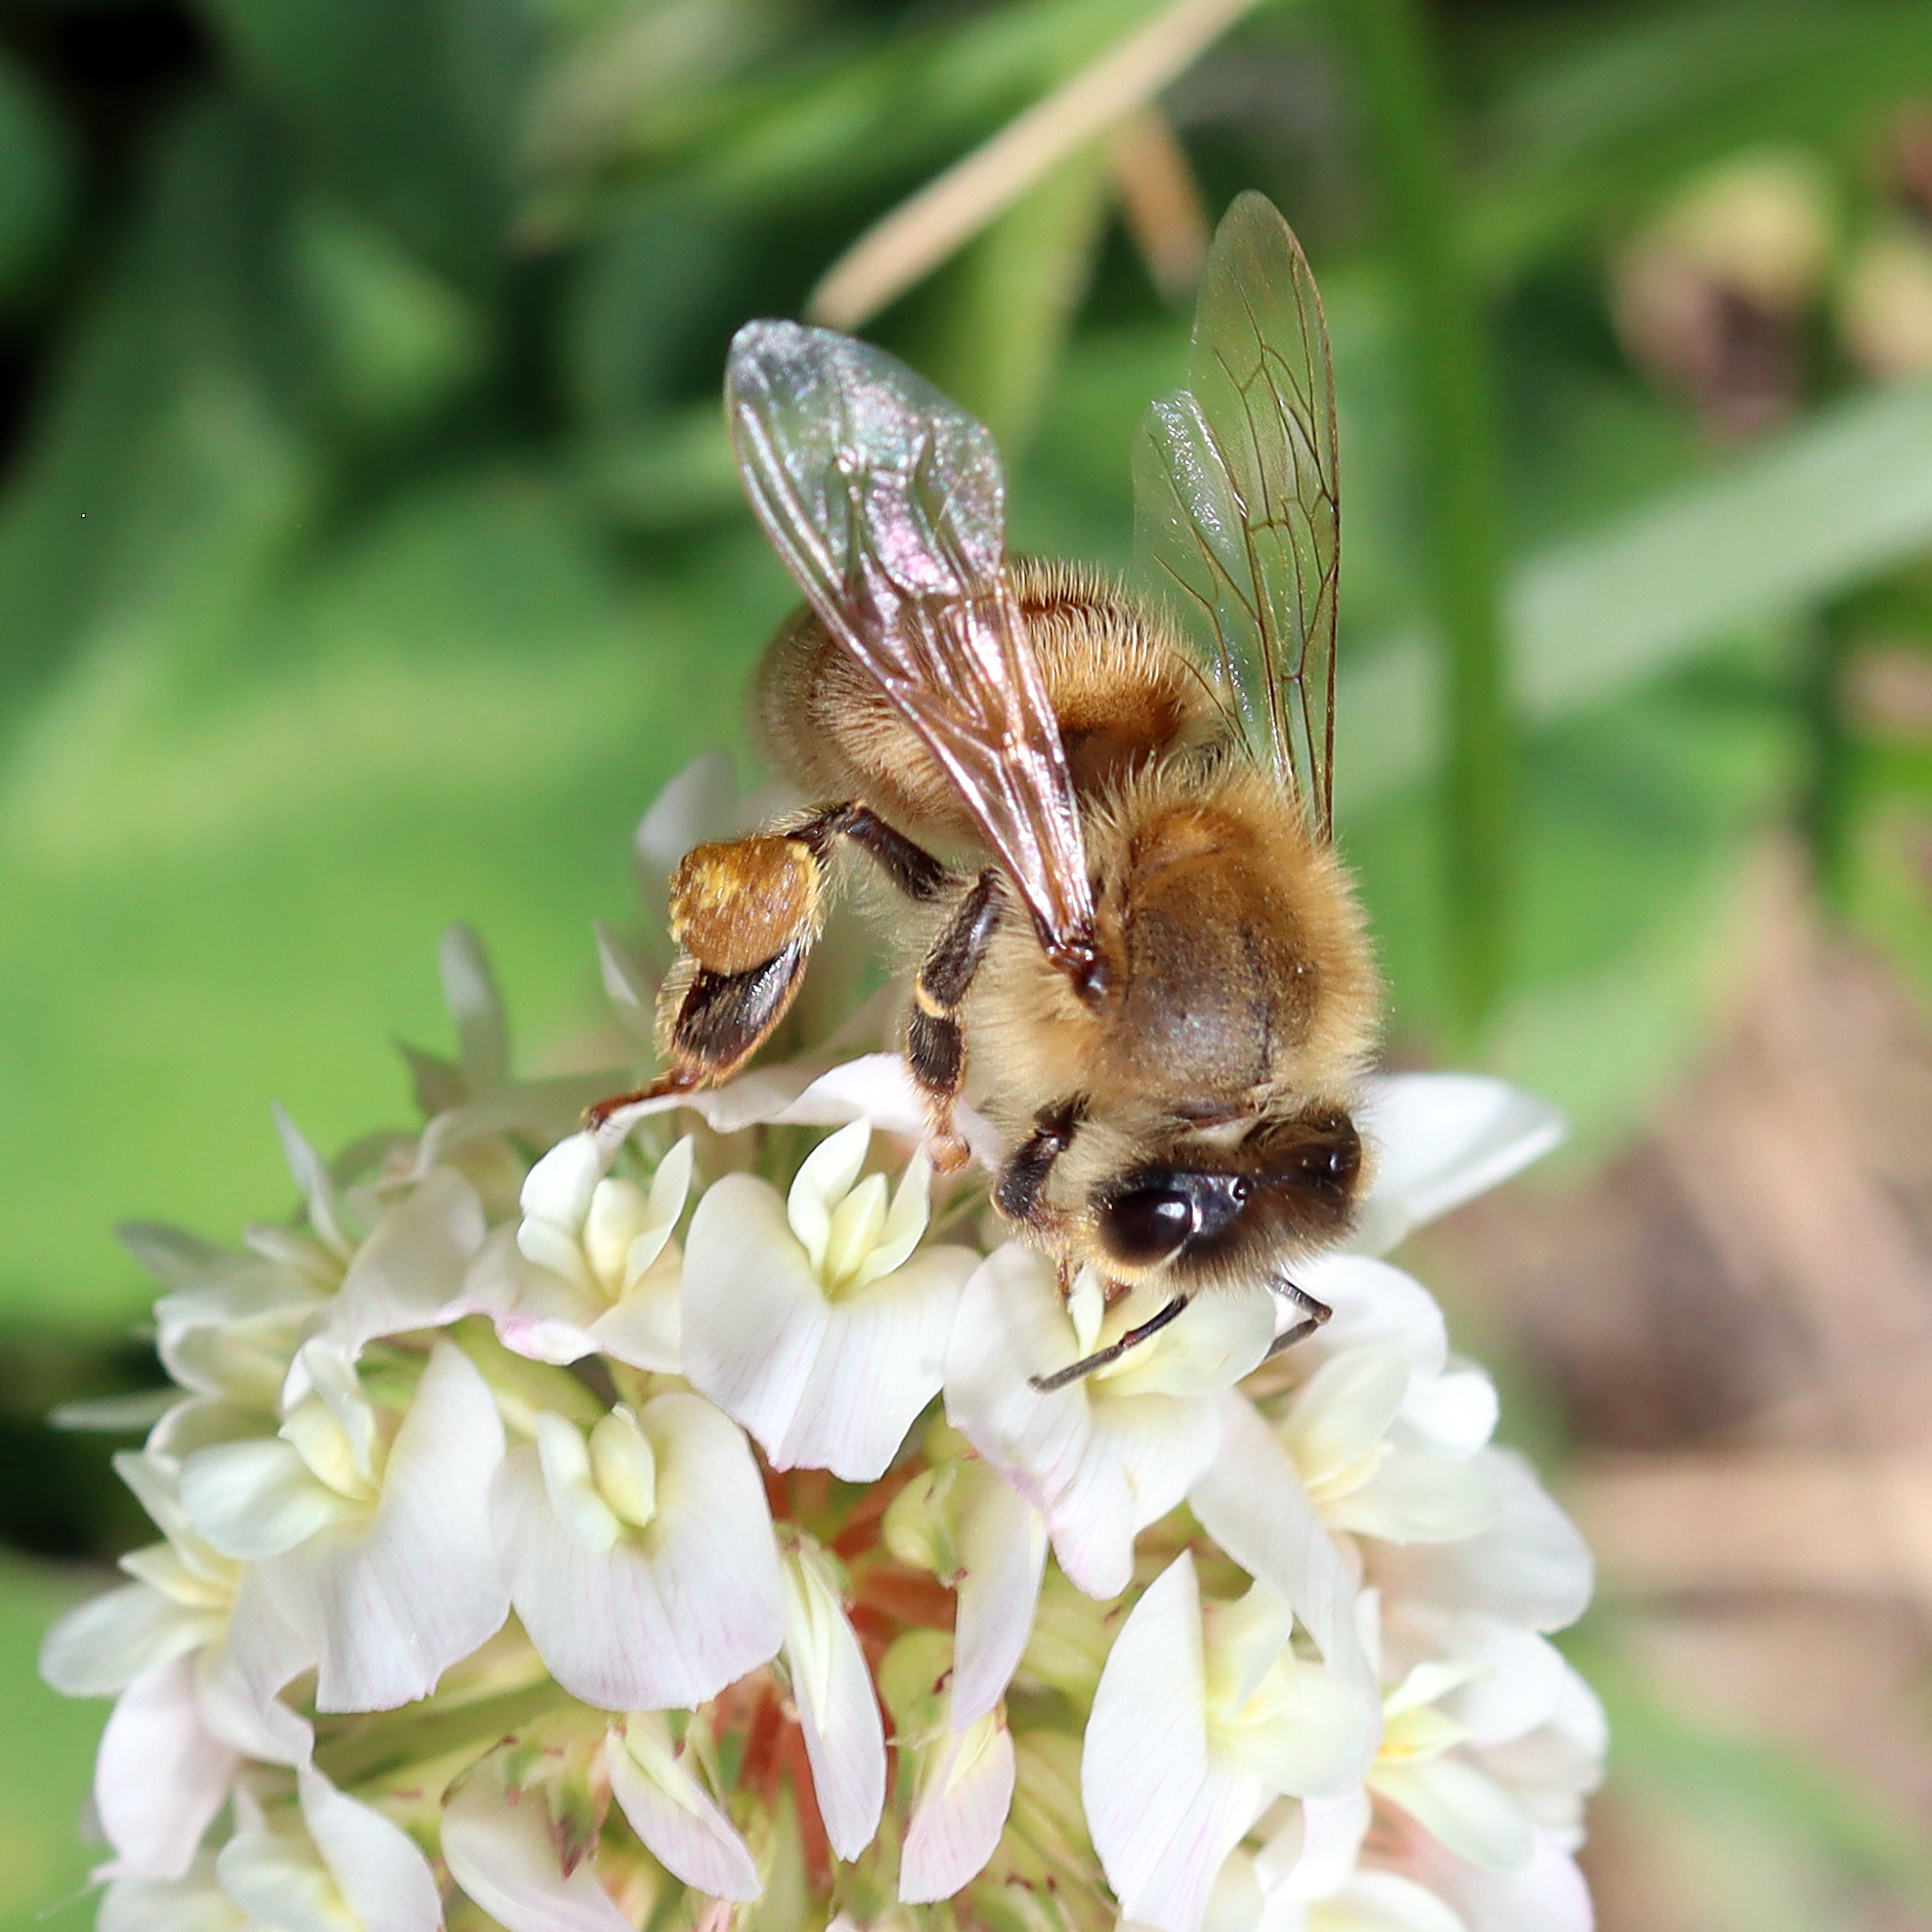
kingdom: Animalia
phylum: Arthropoda
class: Insecta
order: Hymenoptera
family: Apidae
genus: Apis
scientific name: Apis mellifera
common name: Honey bee
